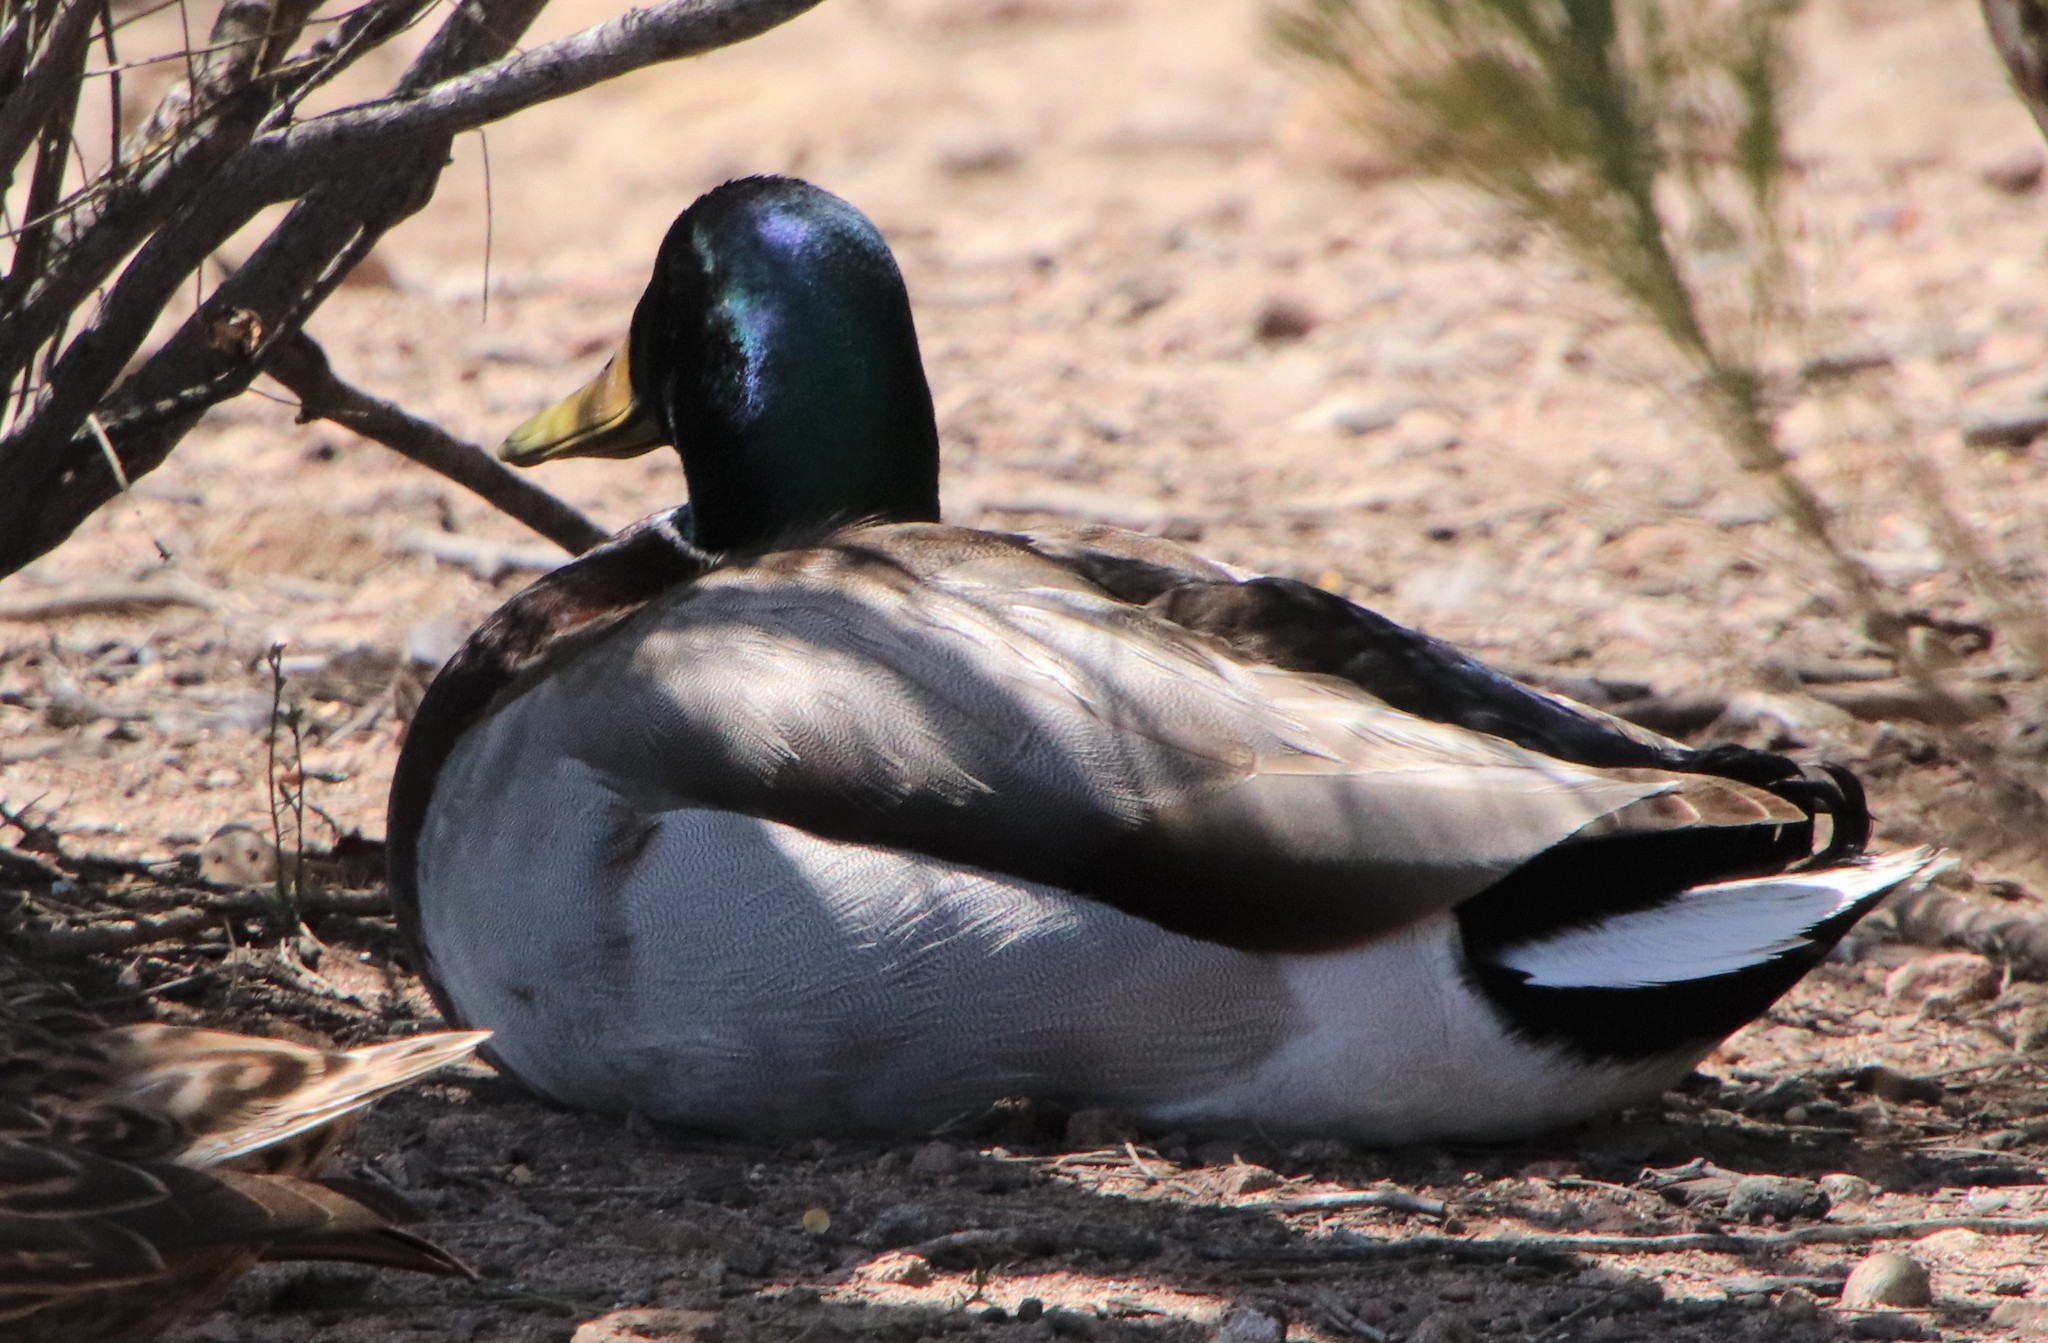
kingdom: Animalia
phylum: Chordata
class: Aves
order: Anseriformes
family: Anatidae
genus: Anas
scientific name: Anas platyrhynchos
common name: Mallard
